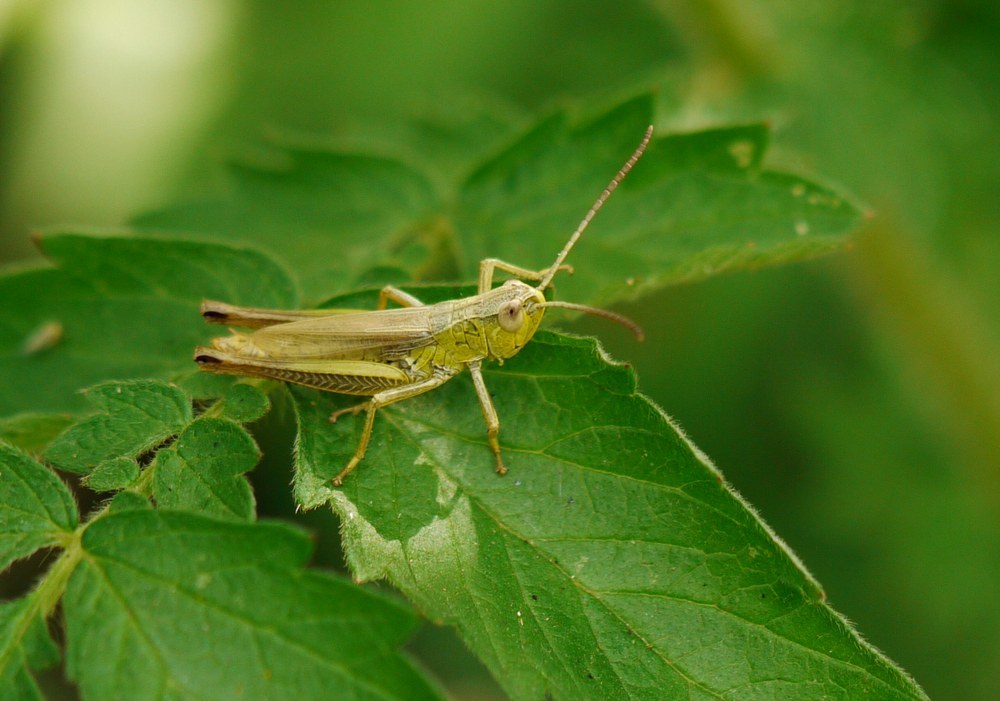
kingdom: Animalia
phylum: Arthropoda
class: Insecta
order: Orthoptera
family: Acrididae
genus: Pseudochorthippus
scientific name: Pseudochorthippus parallelus
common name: Meadow grasshopper
